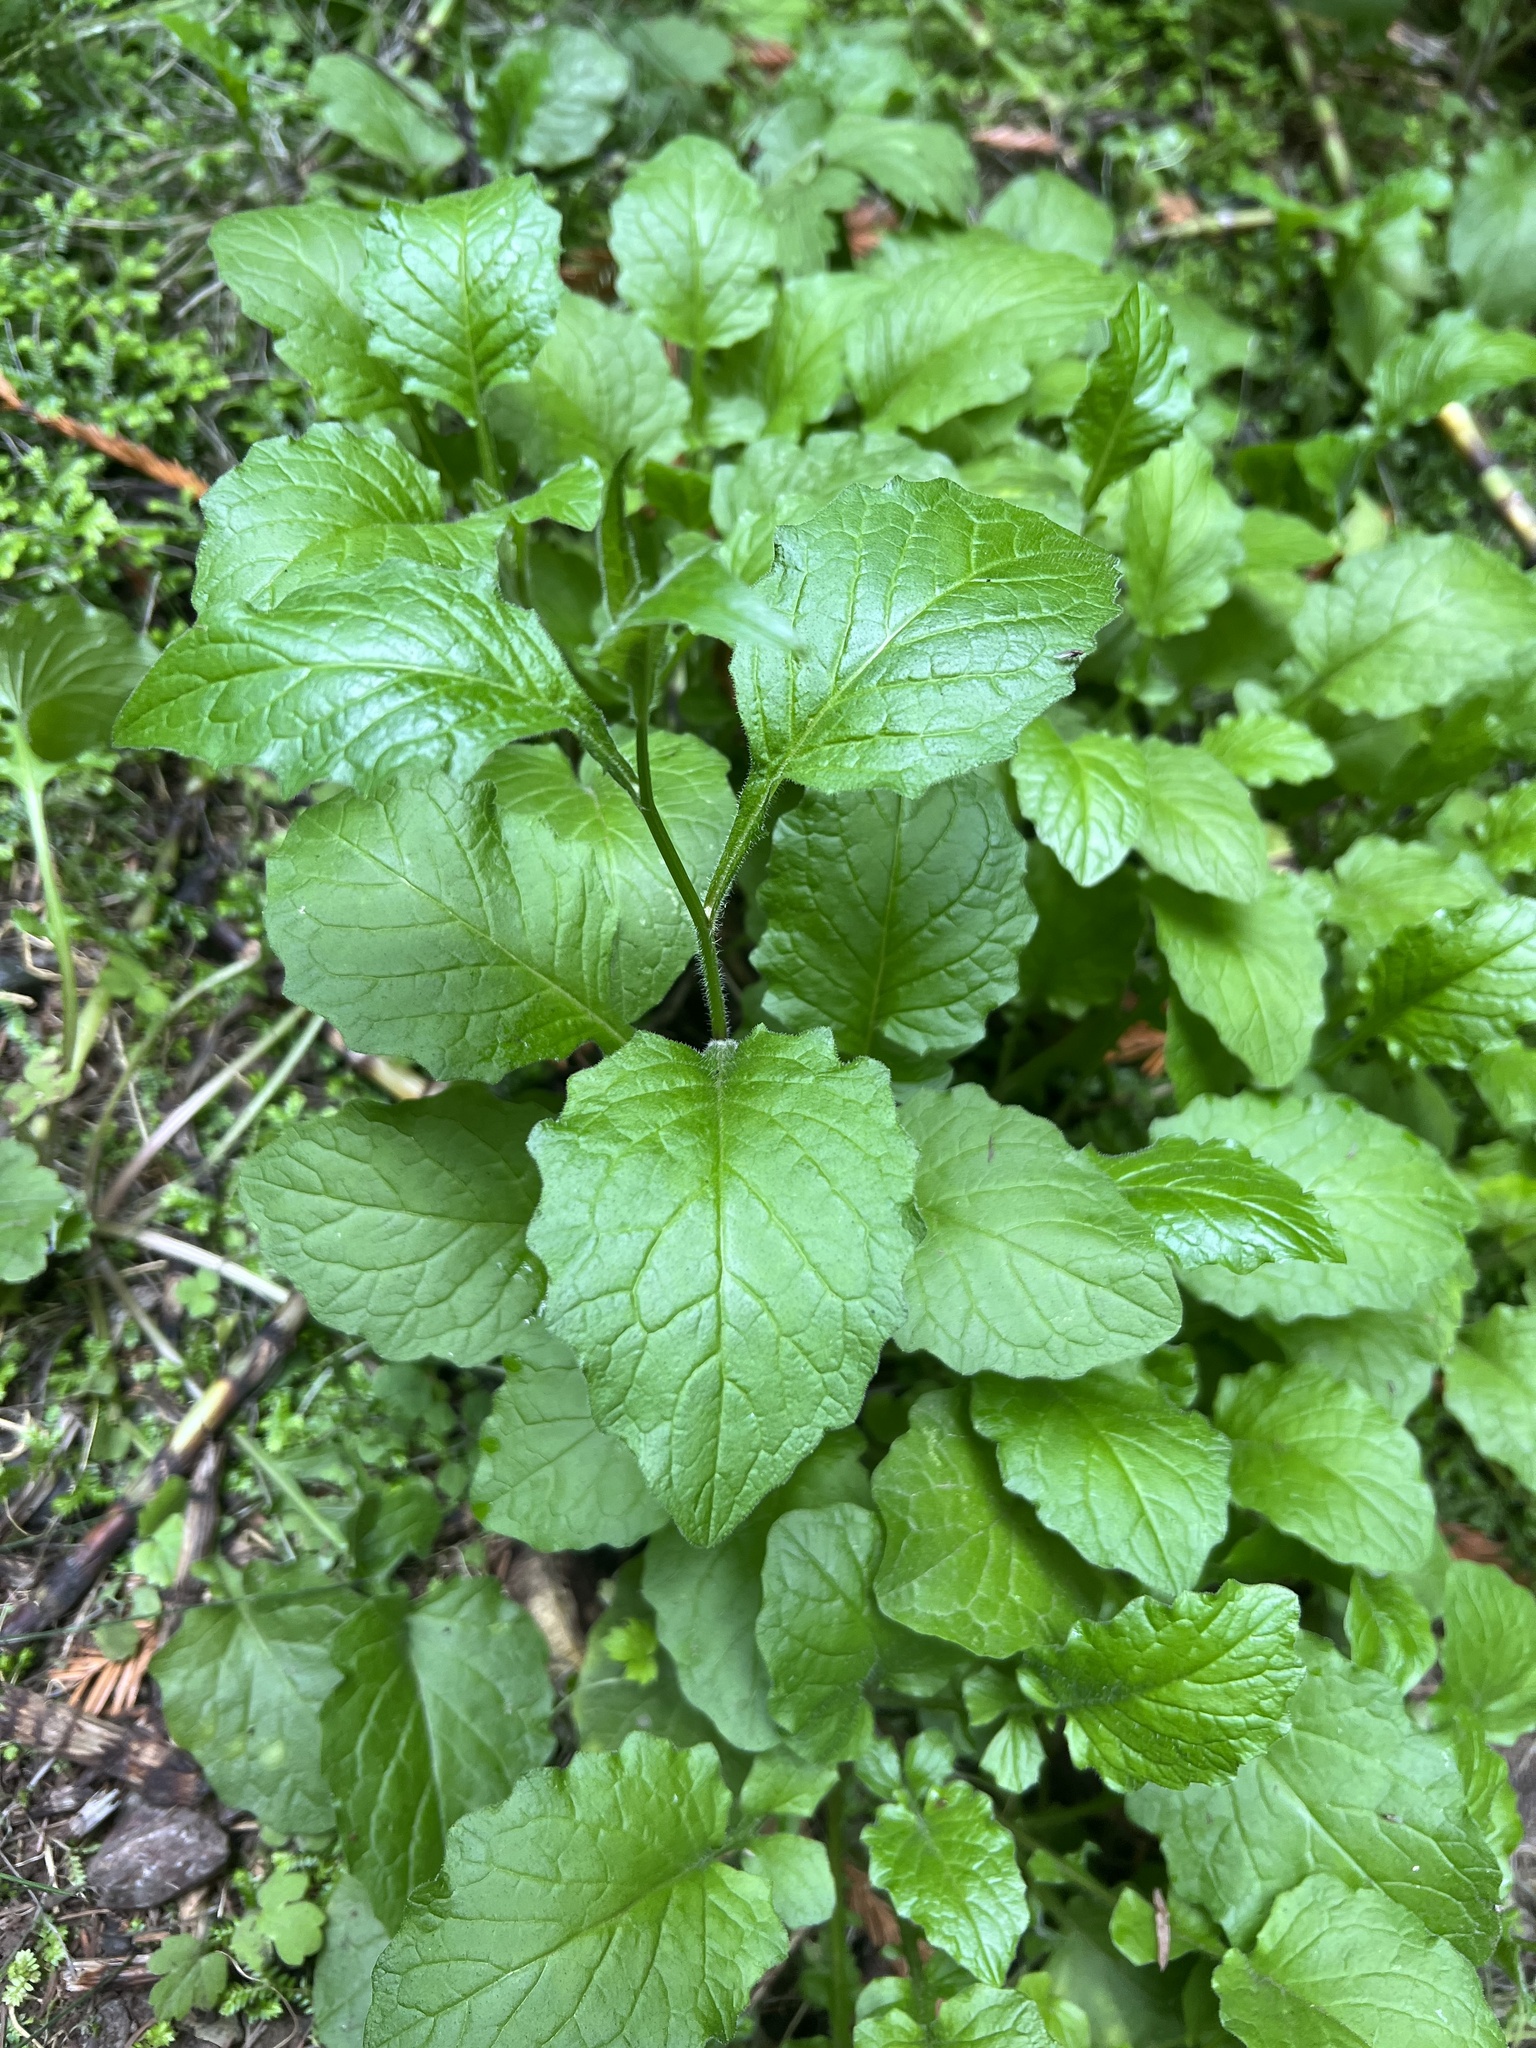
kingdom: Plantae
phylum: Tracheophyta
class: Magnoliopsida
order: Asterales
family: Asteraceae
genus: Lapsana
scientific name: Lapsana communis
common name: Nipplewort
